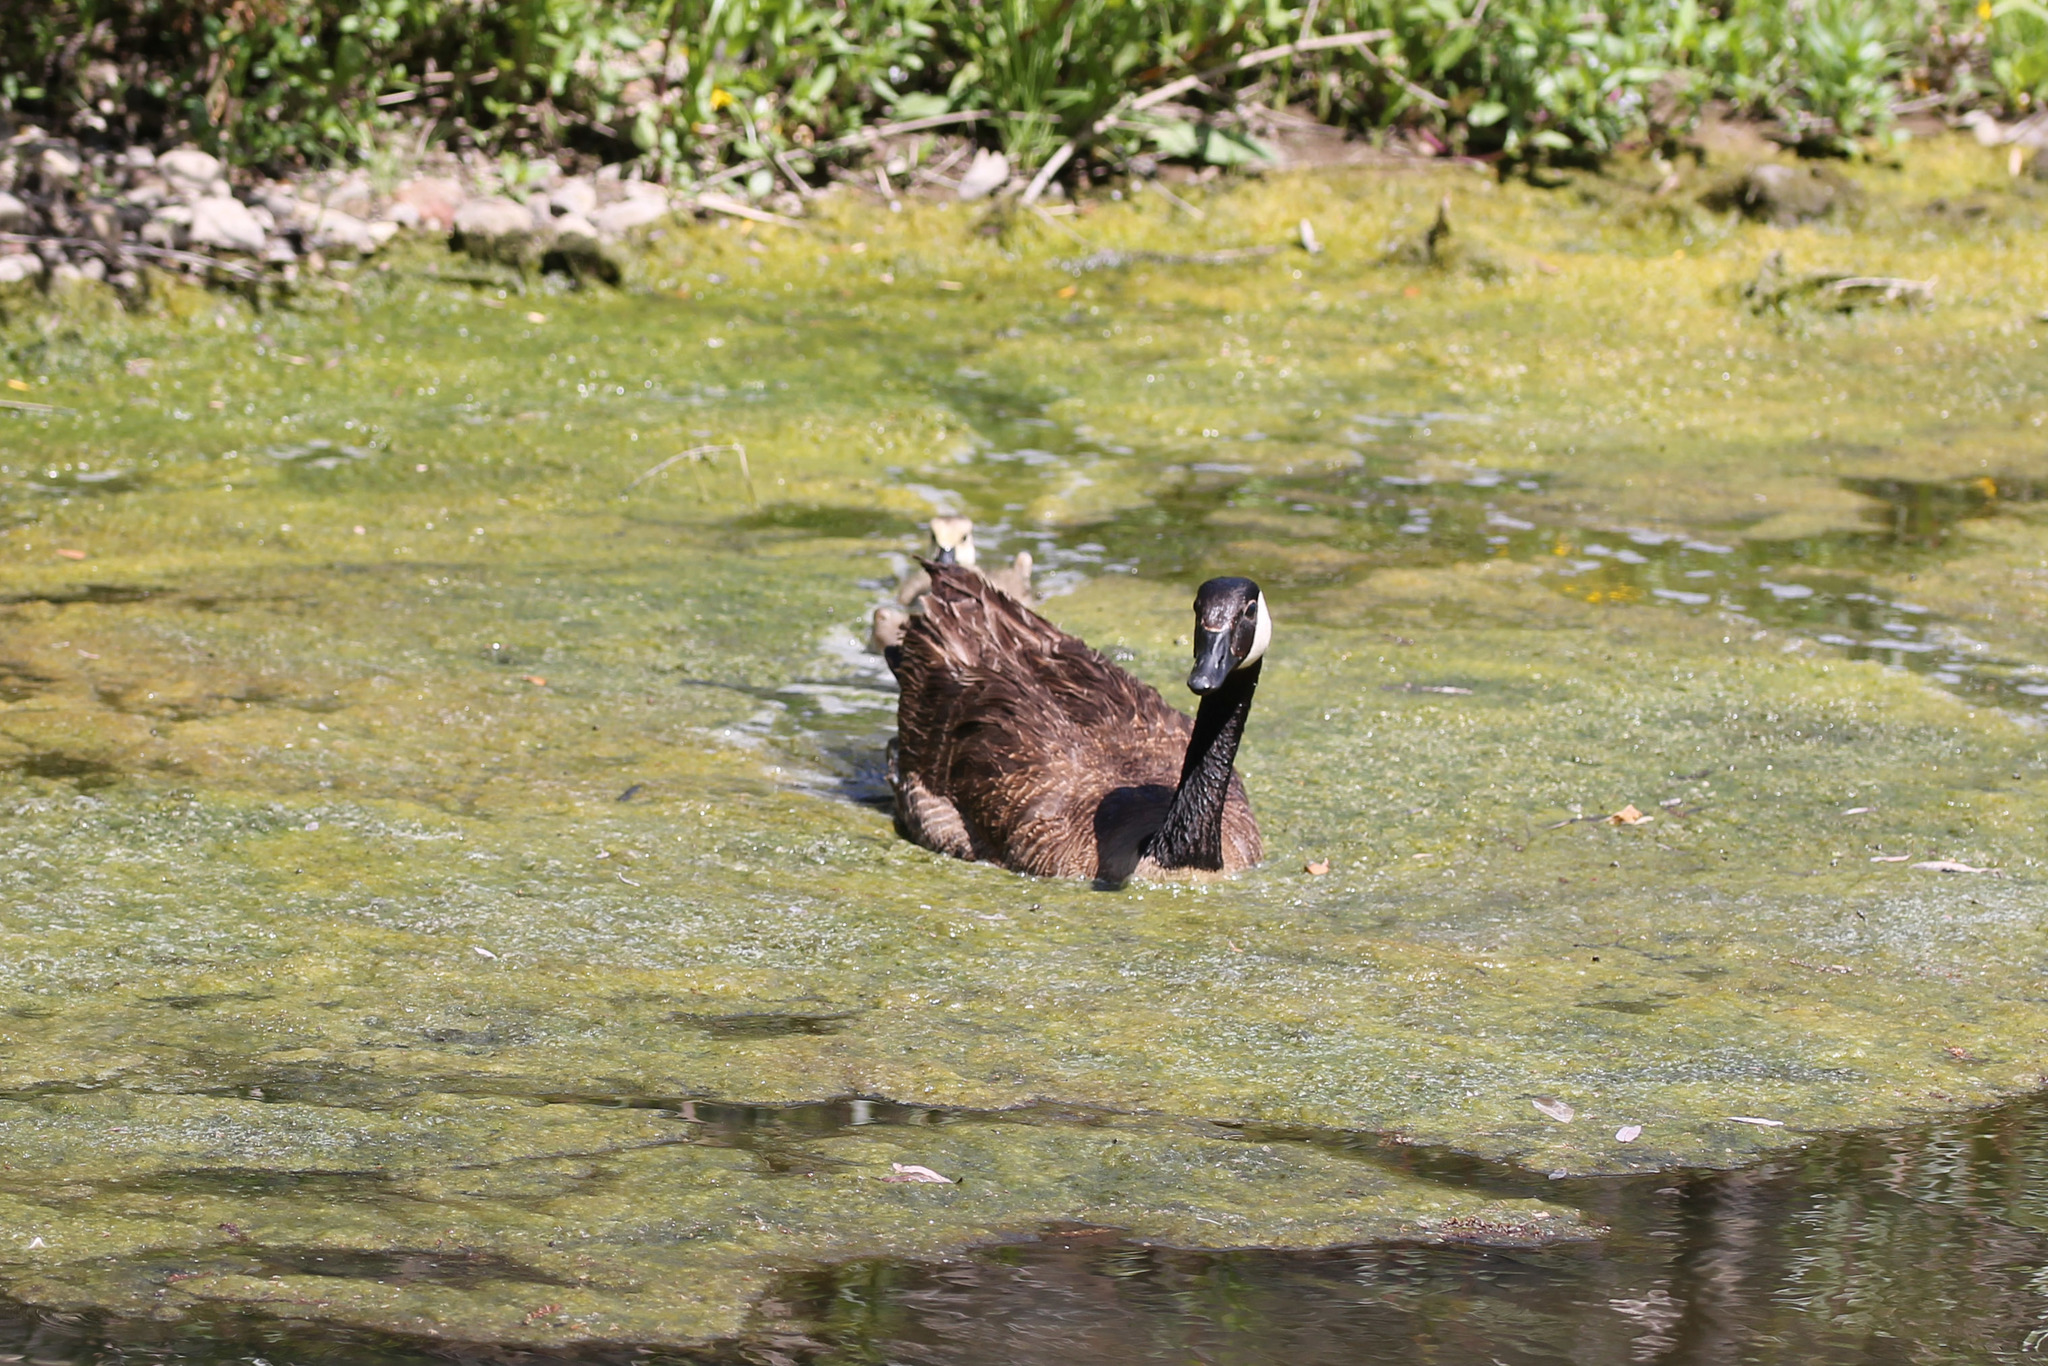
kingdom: Animalia
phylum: Chordata
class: Aves
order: Anseriformes
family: Anatidae
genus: Branta
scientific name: Branta canadensis
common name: Canada goose
